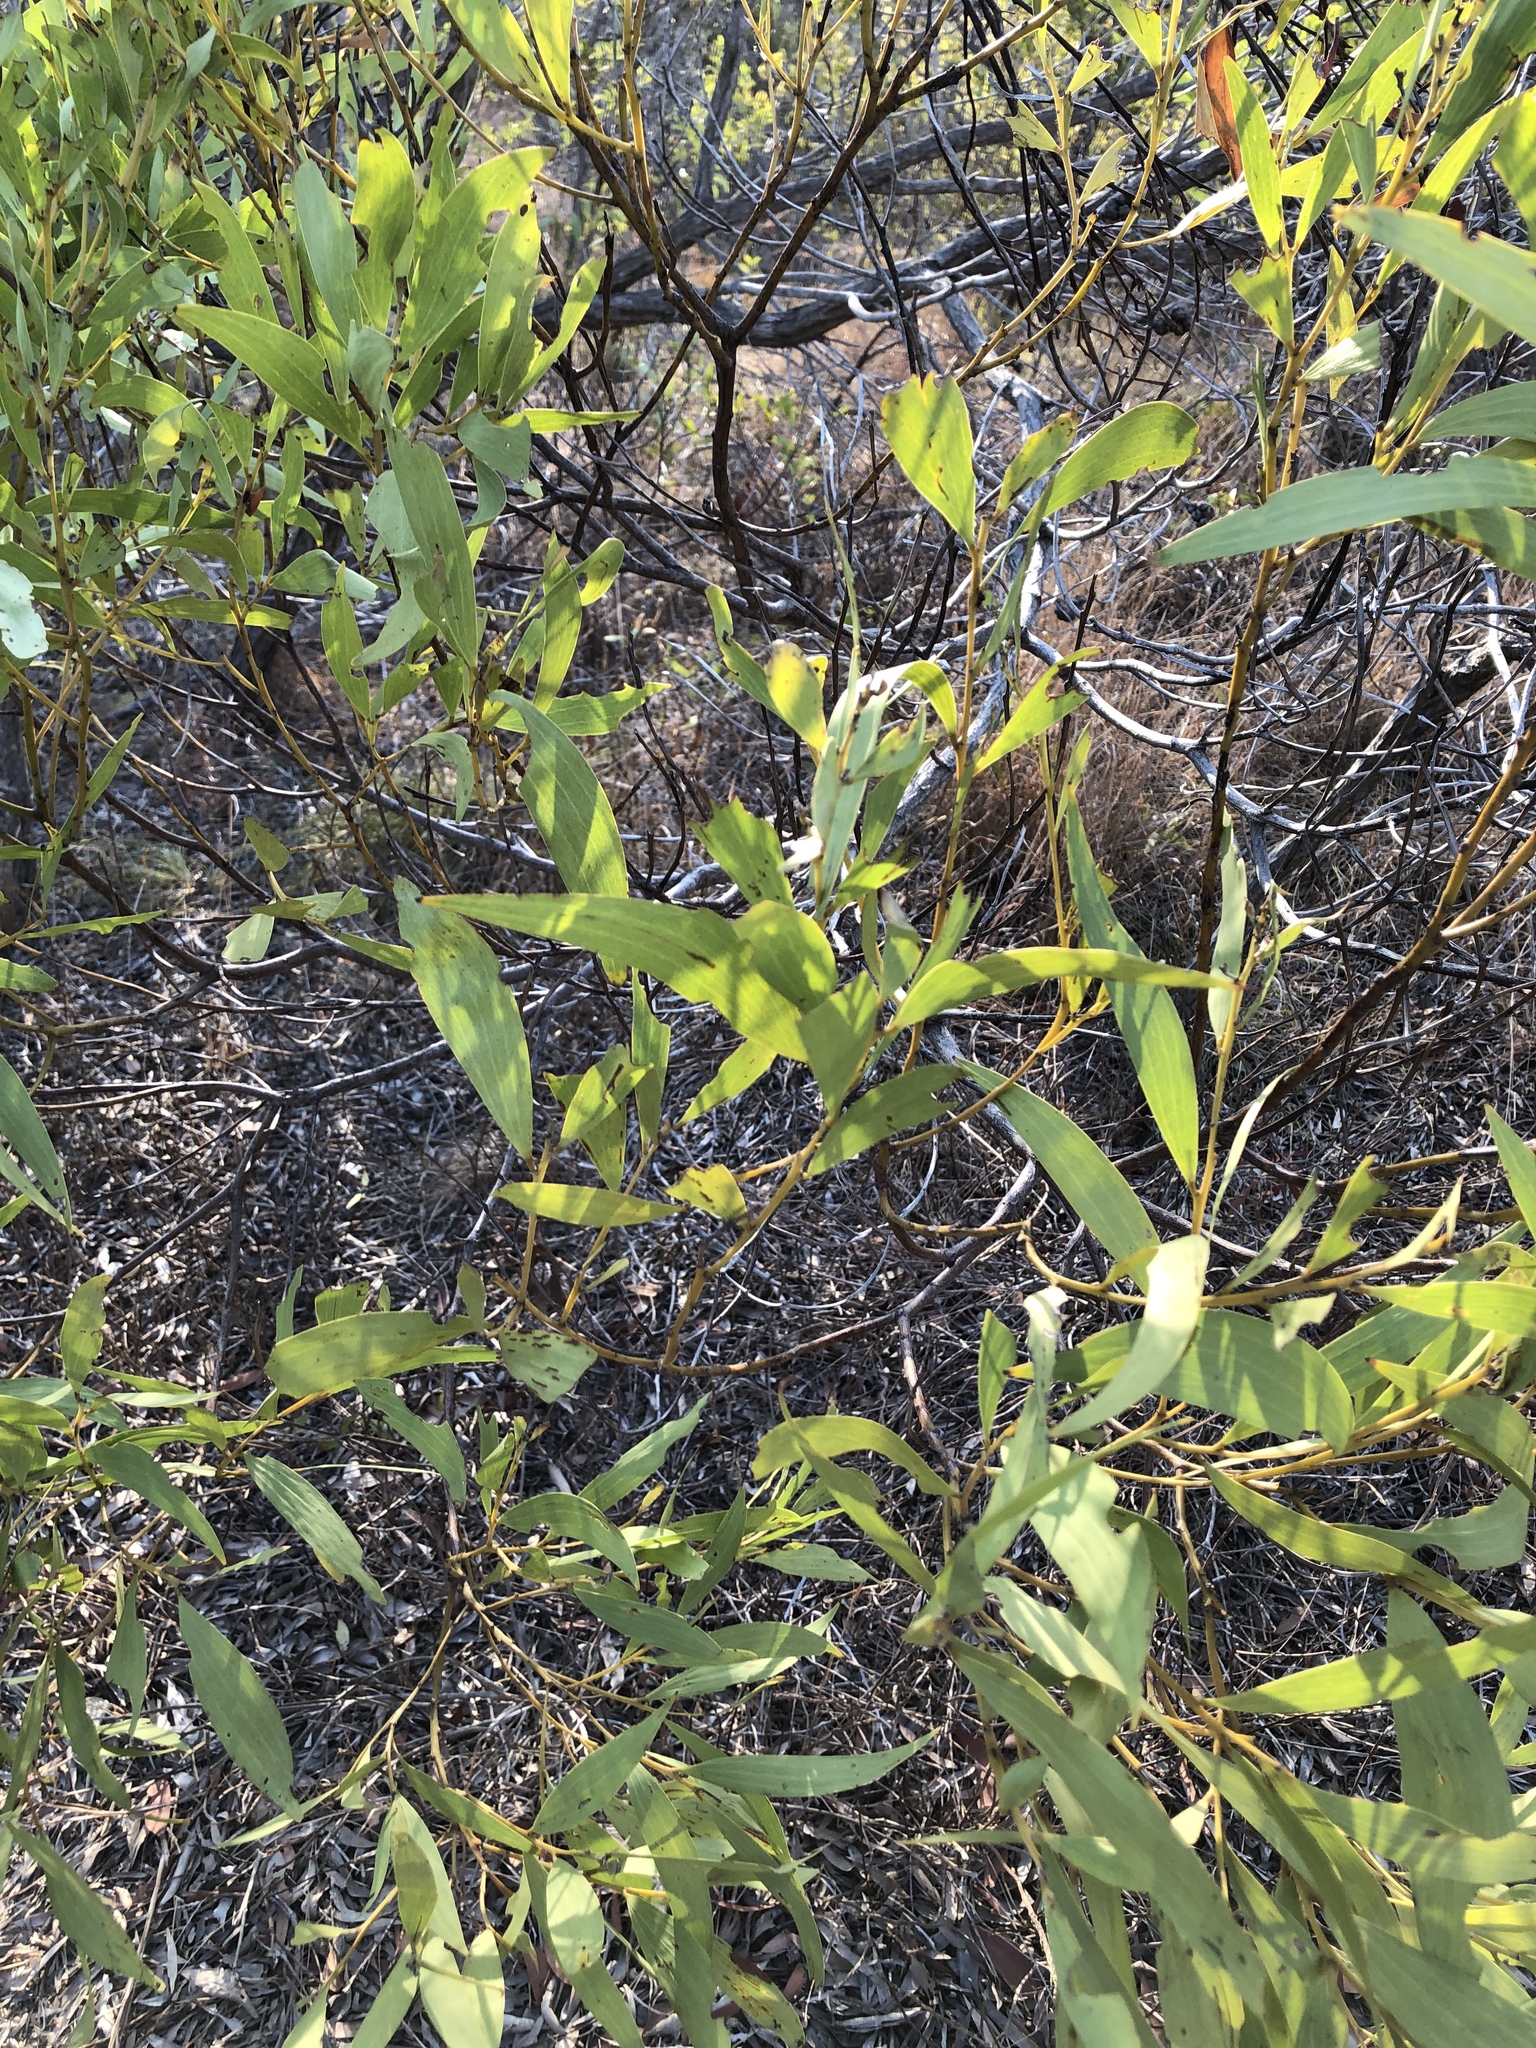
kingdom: Plantae
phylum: Tracheophyta
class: Magnoliopsida
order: Fabales
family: Fabaceae
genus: Acacia
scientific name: Acacia leiocalyx
